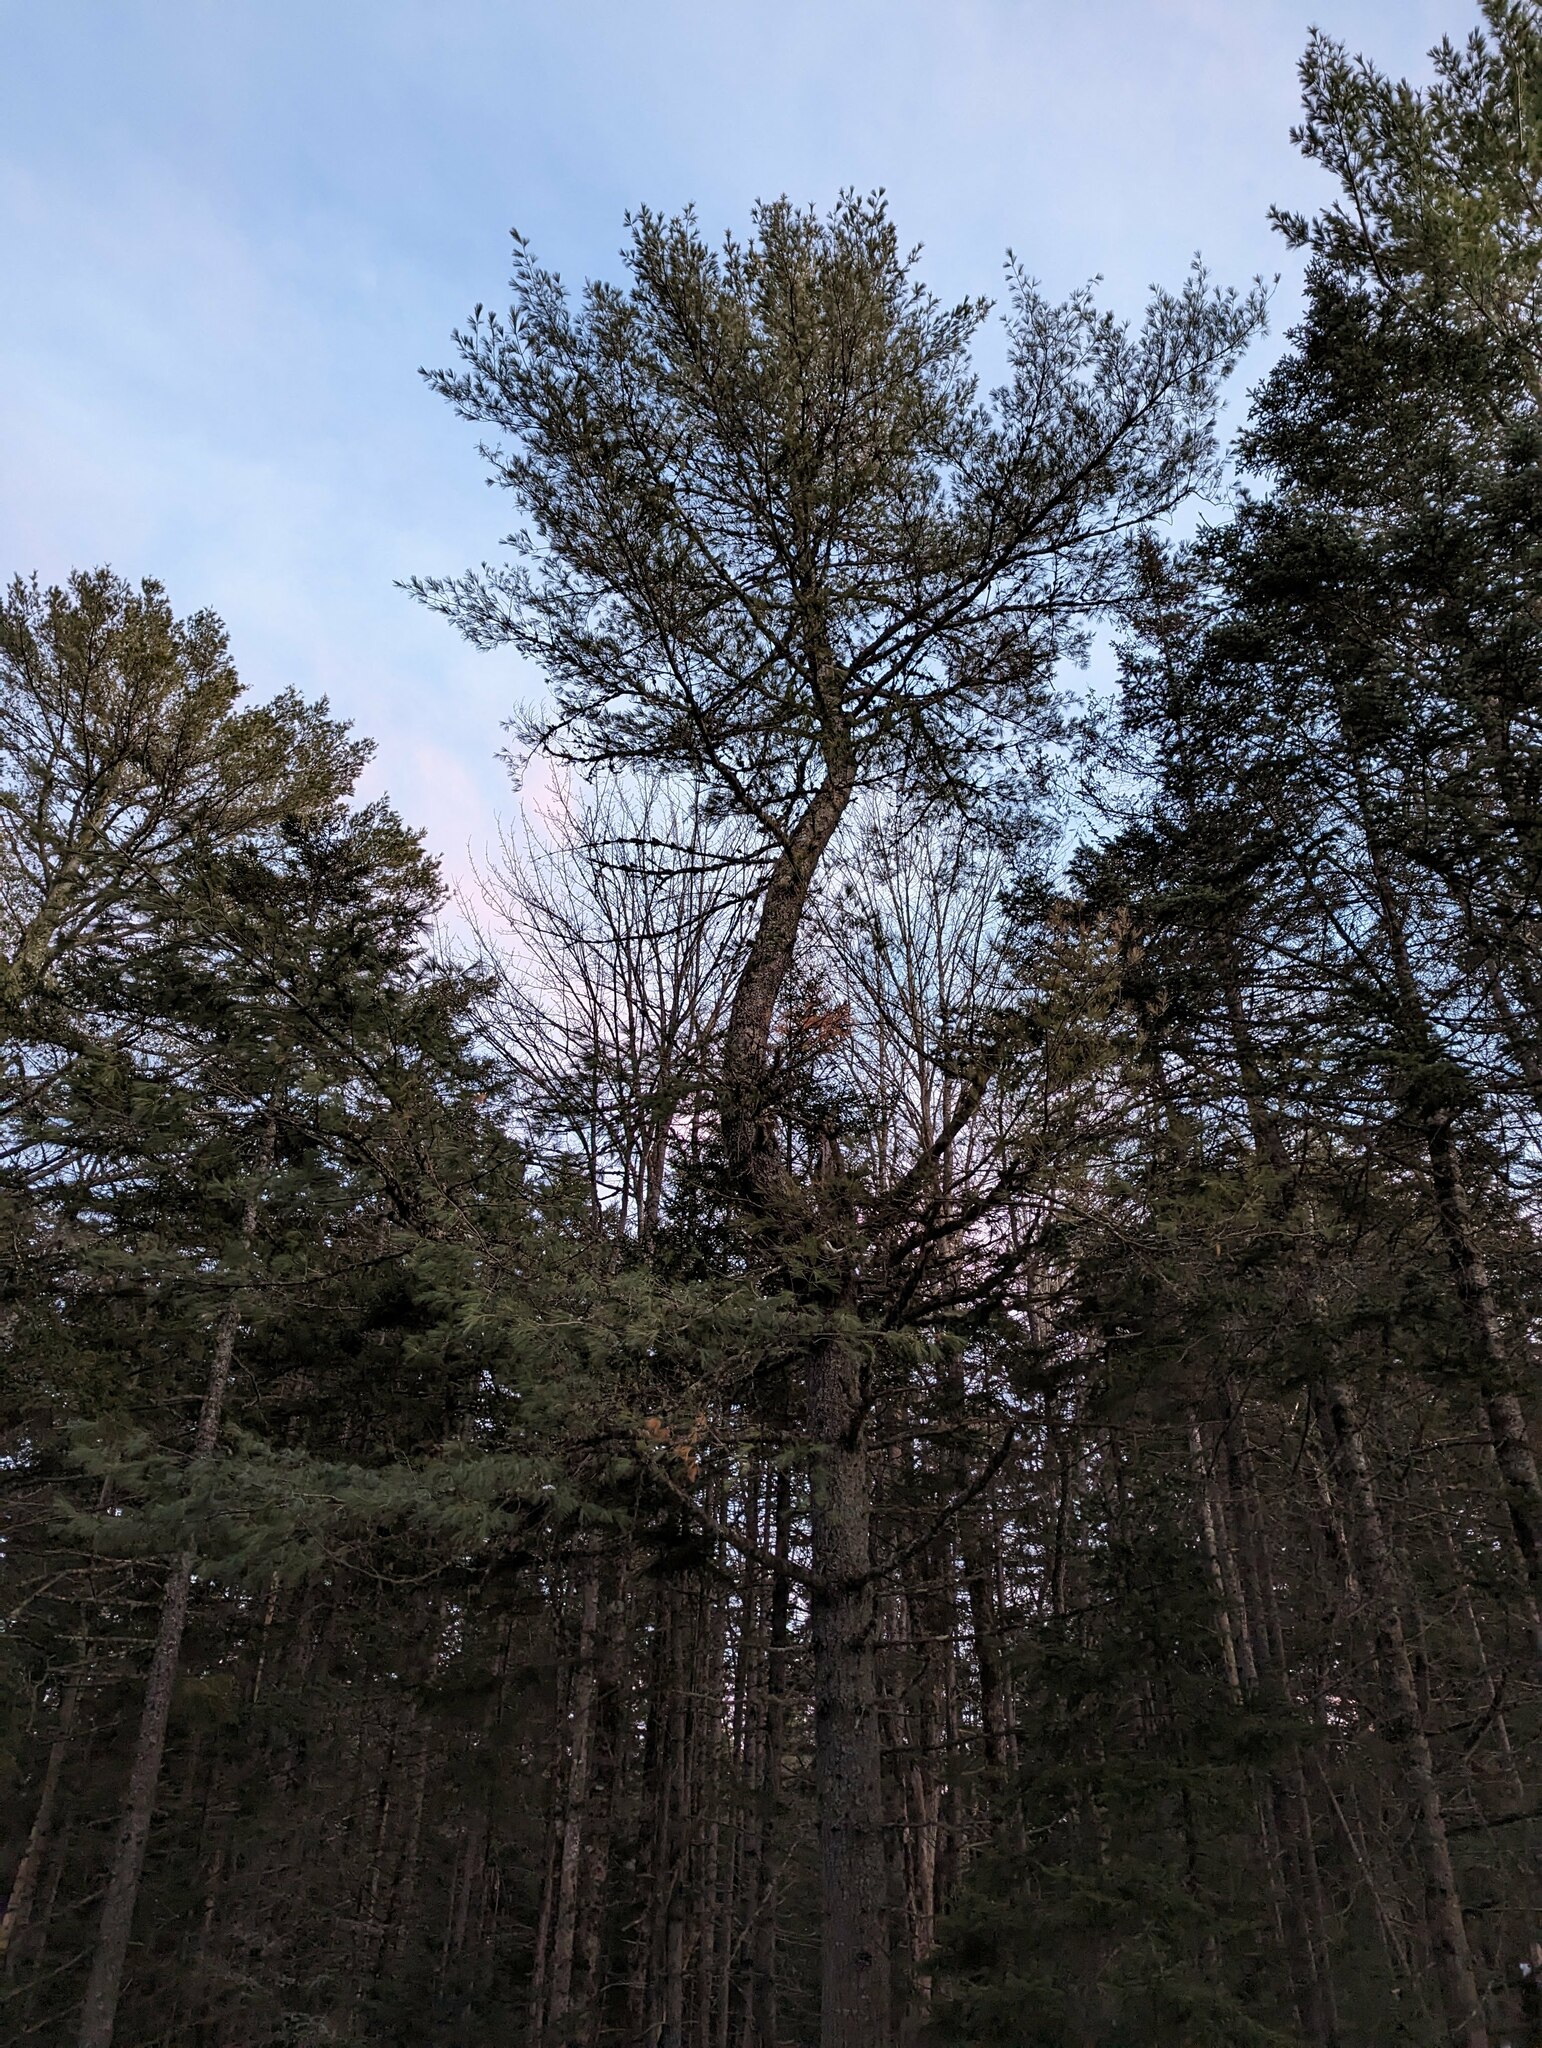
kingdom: Plantae
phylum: Tracheophyta
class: Pinopsida
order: Pinales
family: Pinaceae
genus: Pinus
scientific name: Pinus strobus
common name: Weymouth pine
